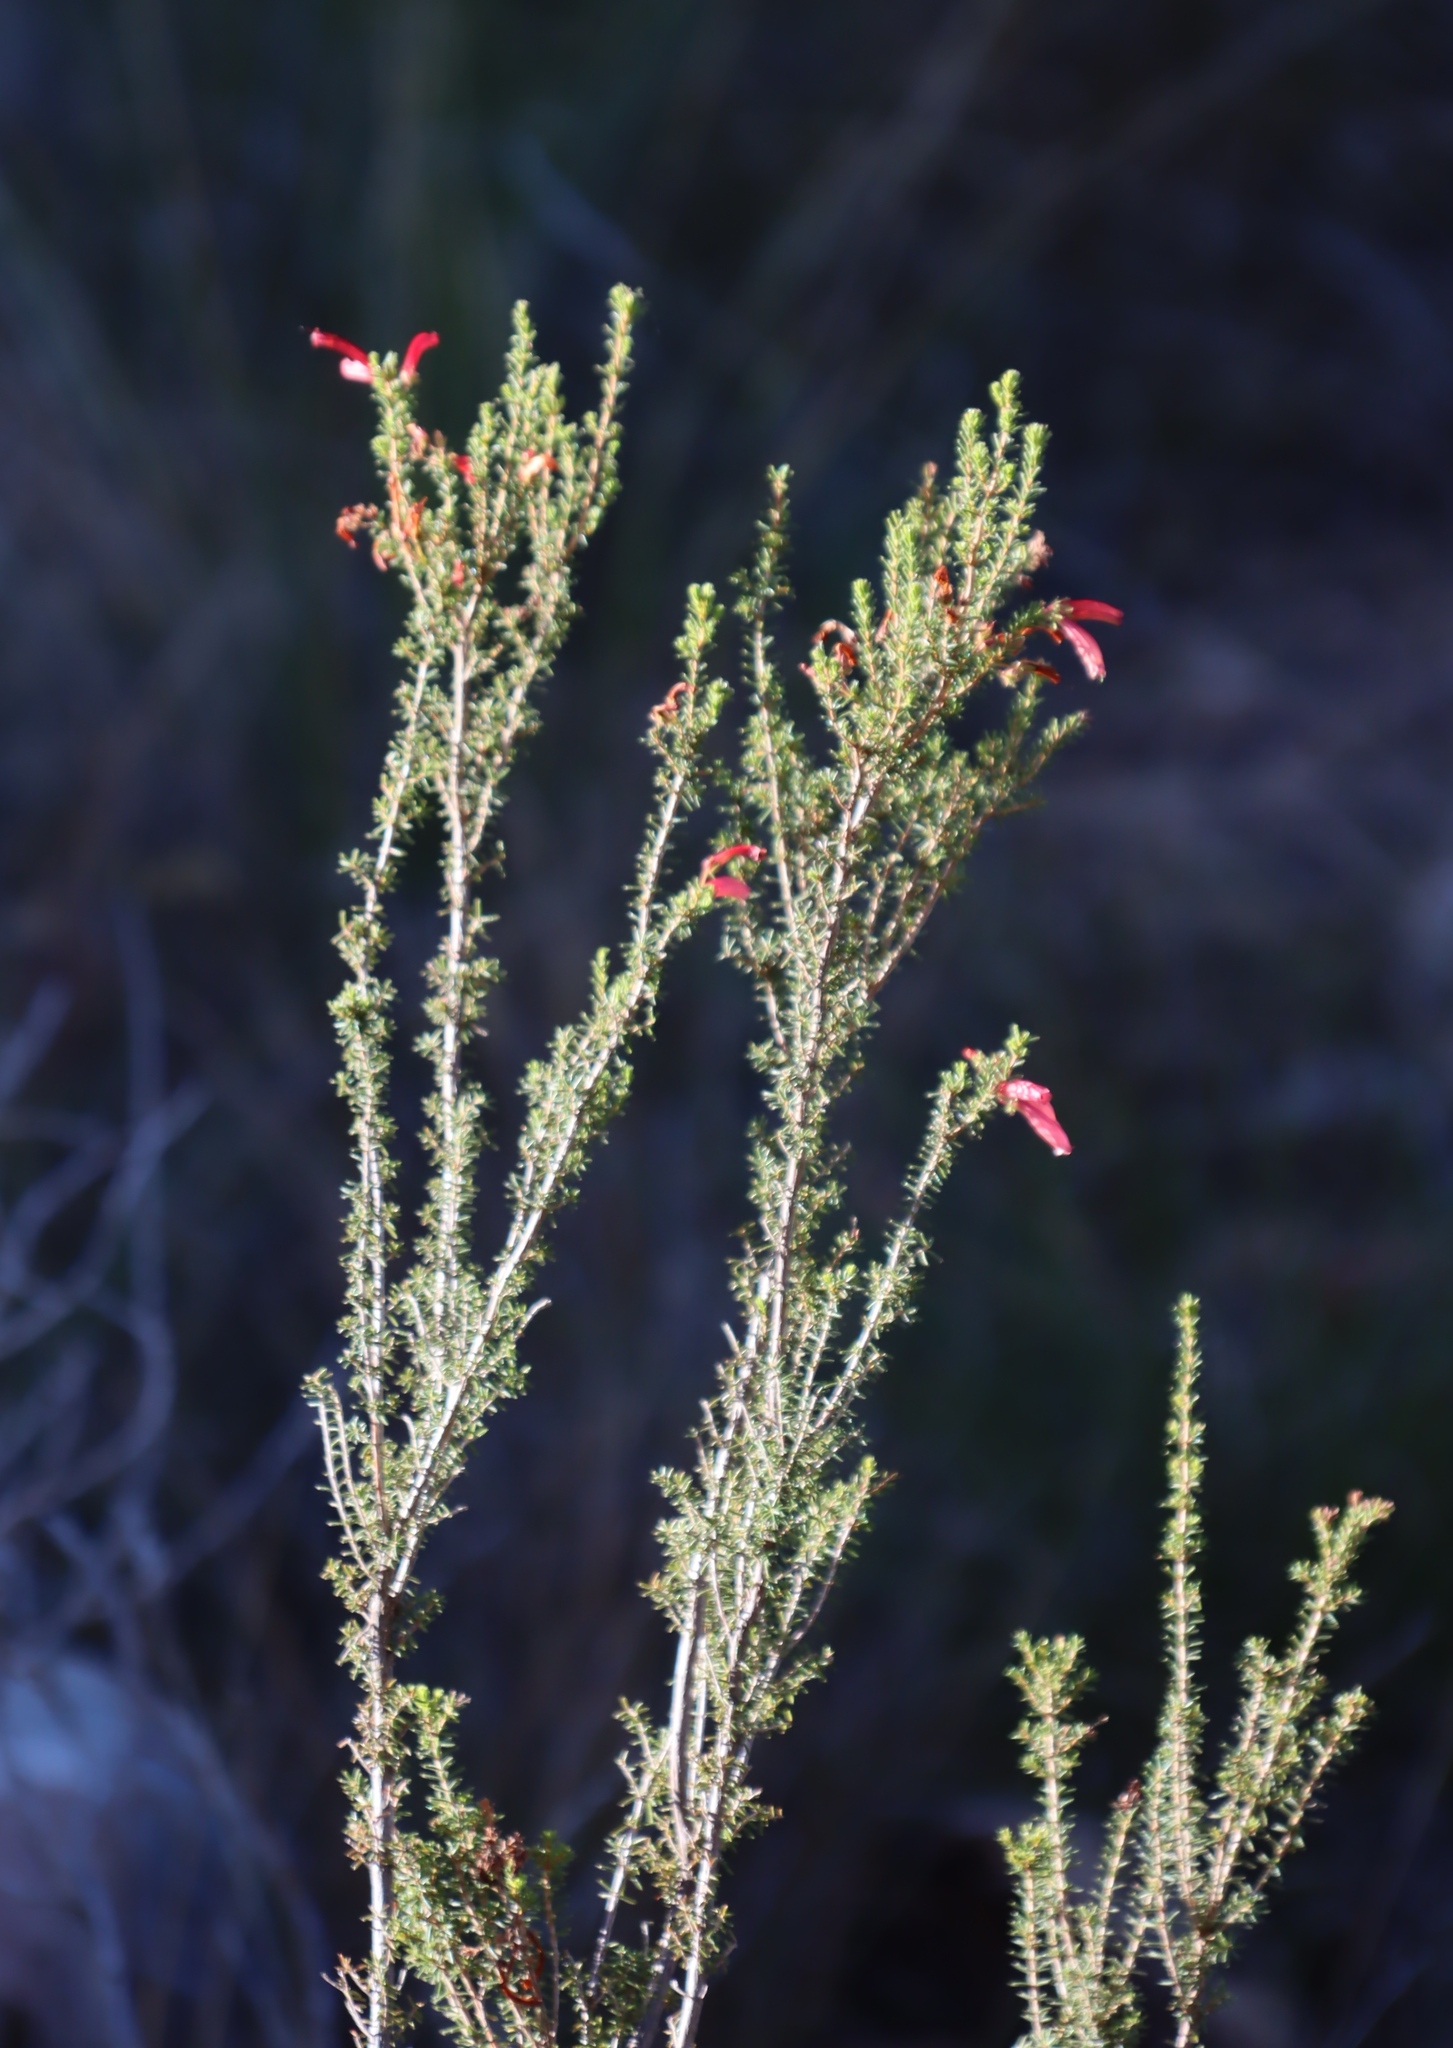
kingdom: Plantae
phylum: Tracheophyta
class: Magnoliopsida
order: Ericales
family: Ericaceae
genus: Erica
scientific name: Erica glandulosa
